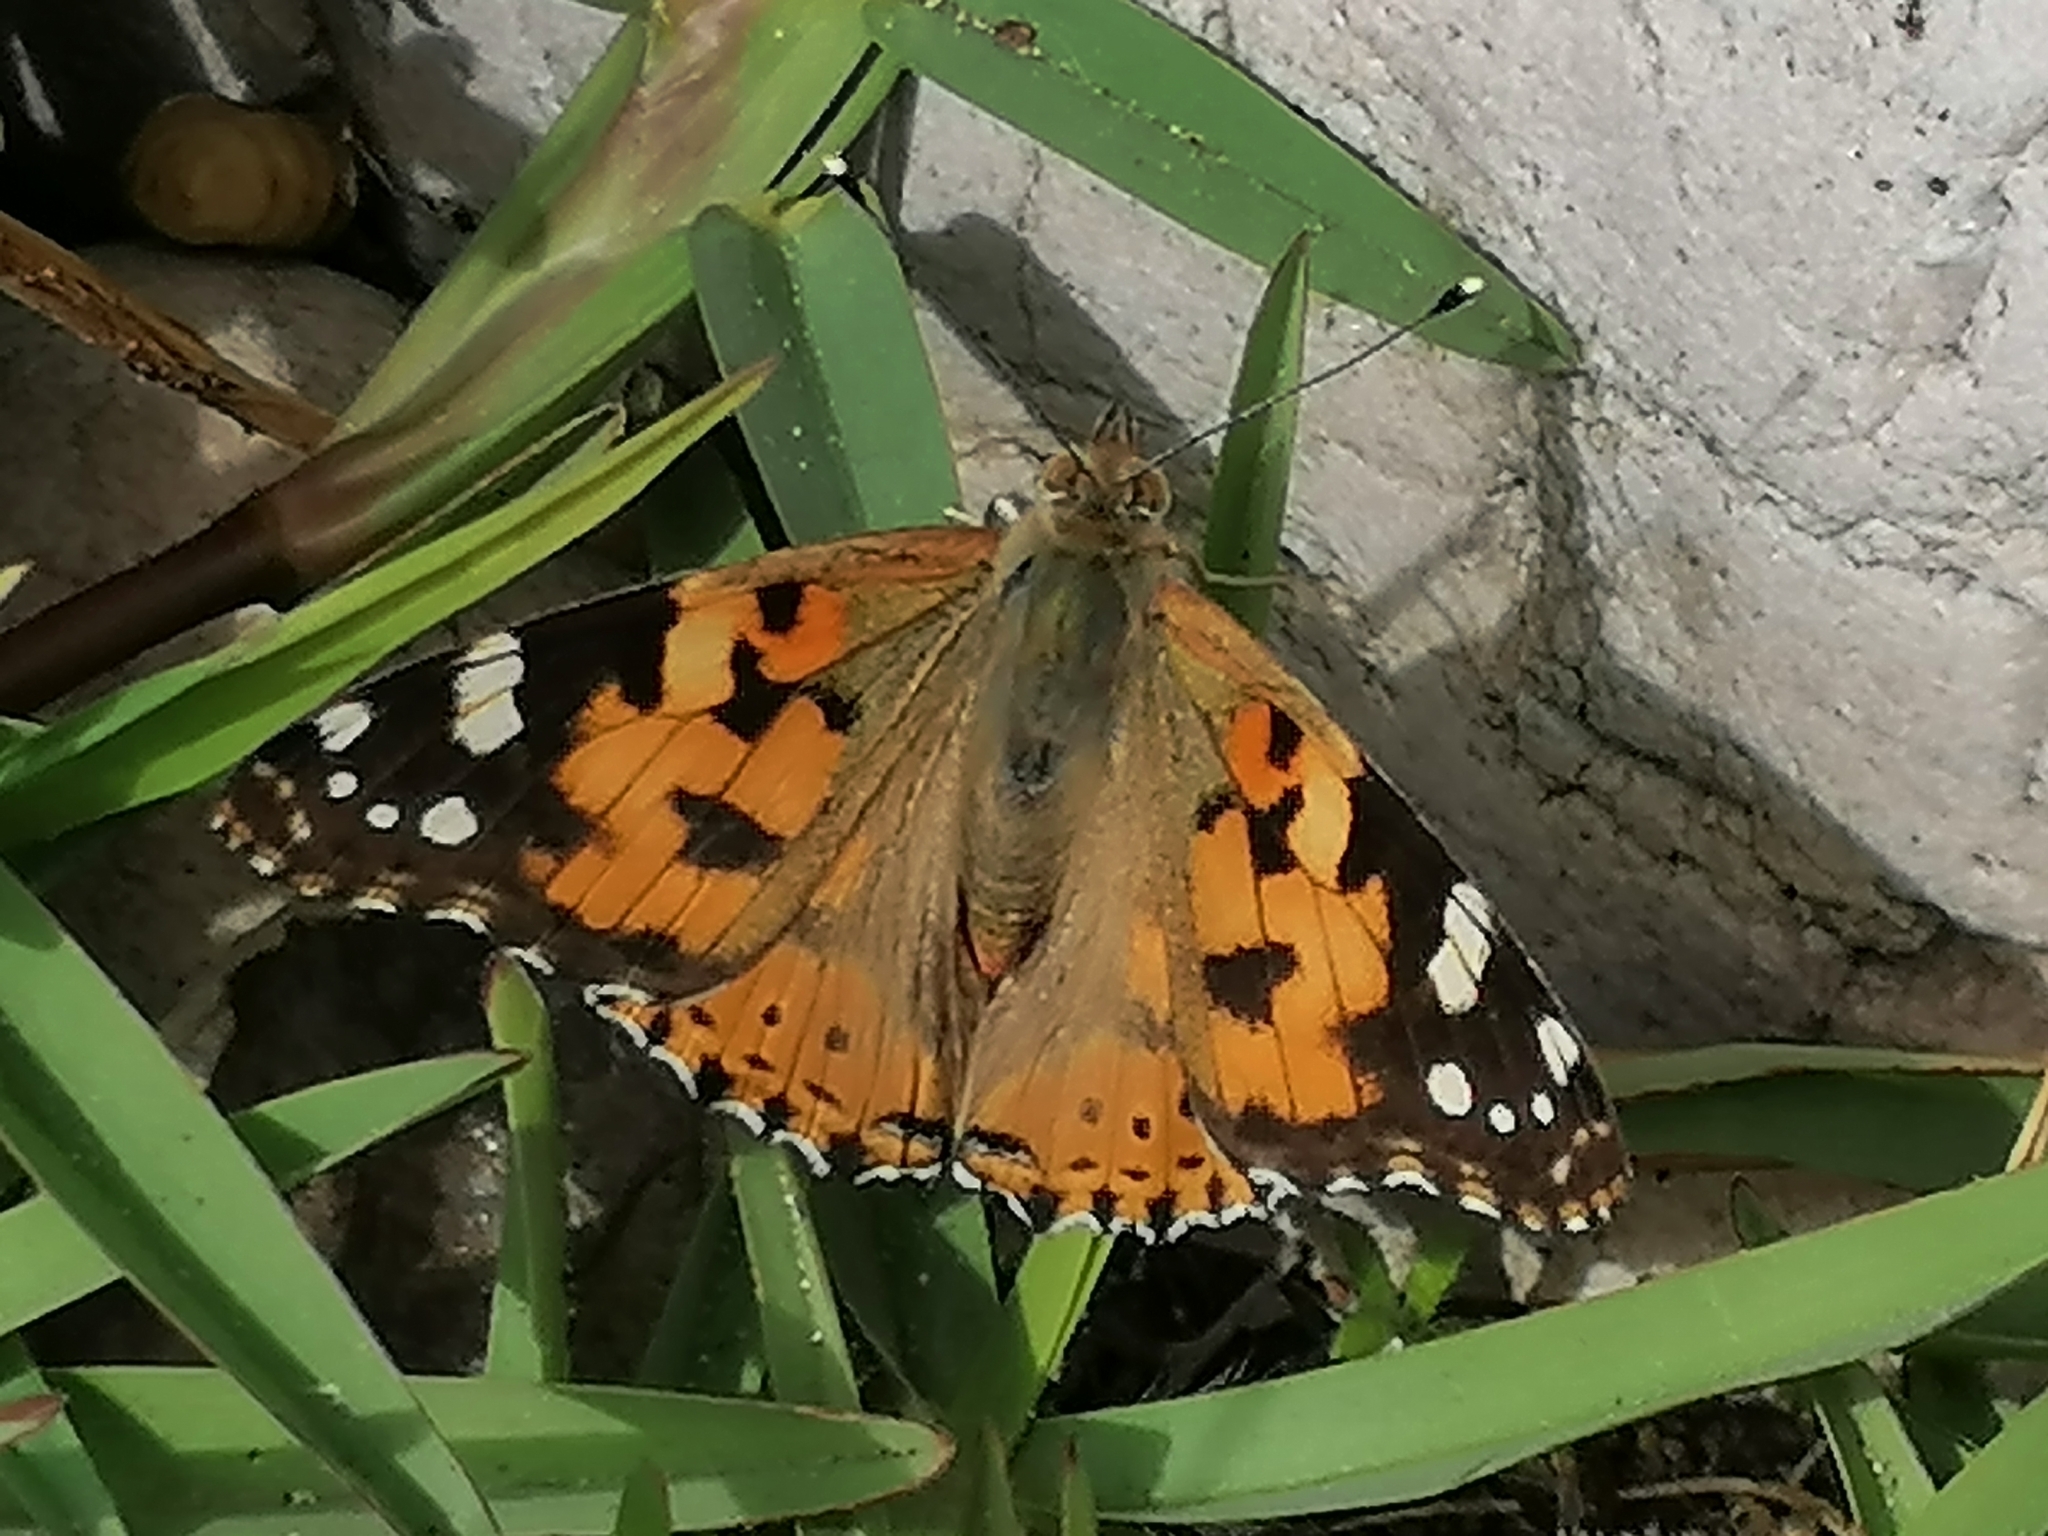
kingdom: Animalia
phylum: Arthropoda
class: Insecta
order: Lepidoptera
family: Nymphalidae
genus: Vanessa
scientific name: Vanessa cardui
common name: Painted lady
